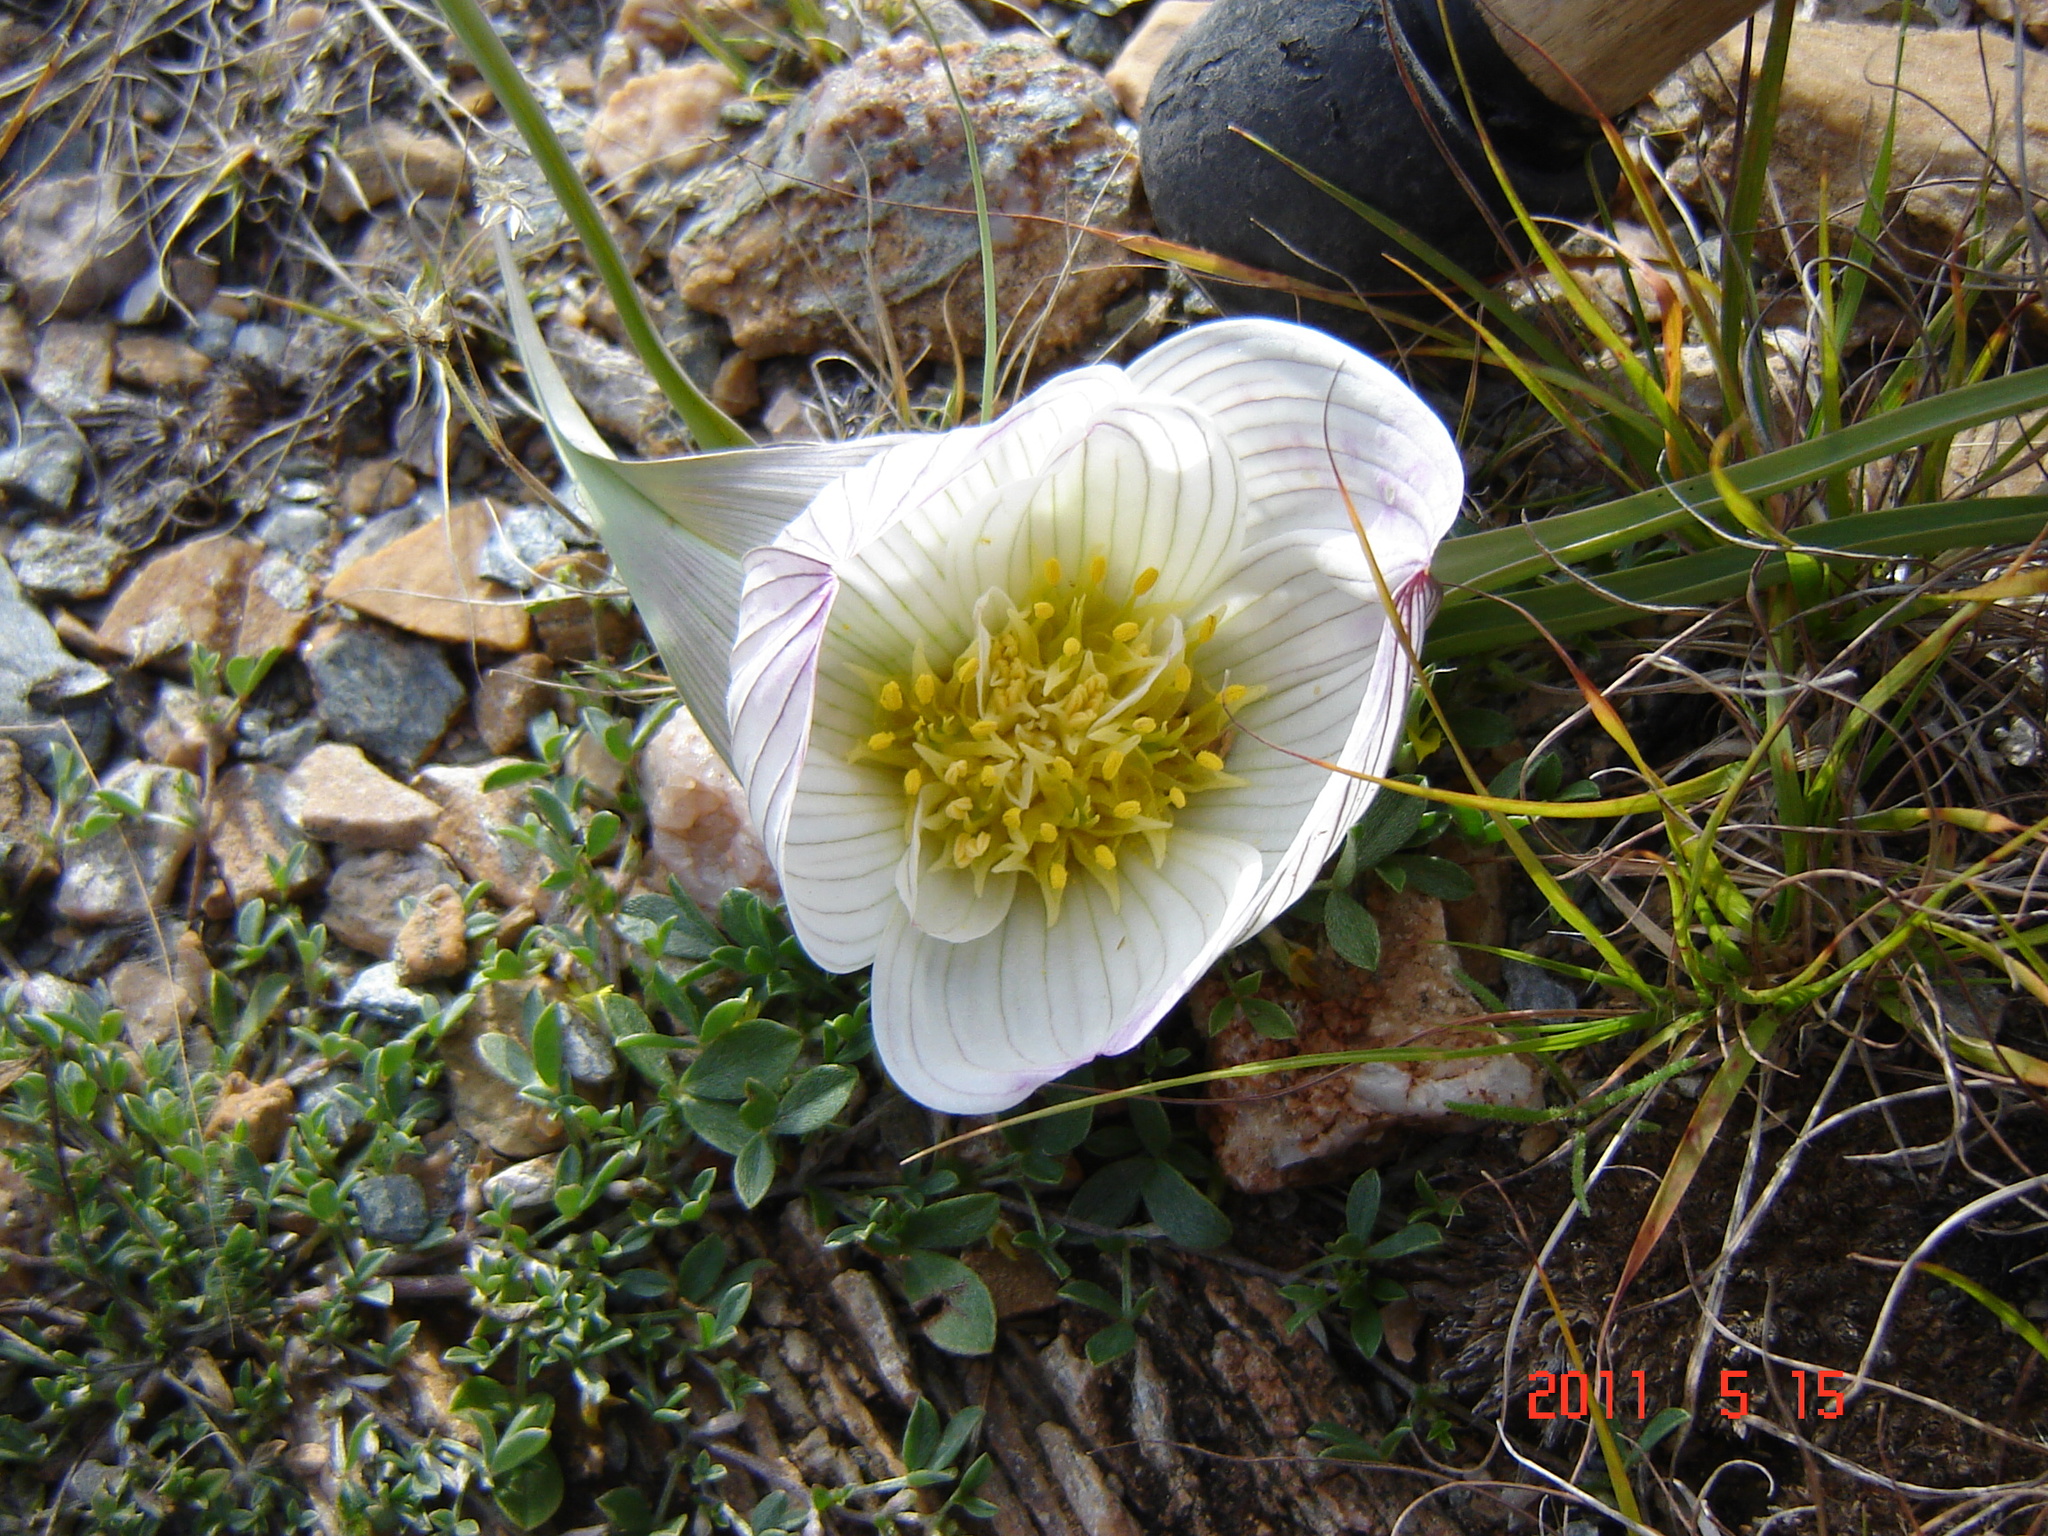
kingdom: Plantae
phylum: Tracheophyta
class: Liliopsida
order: Liliales
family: Colchicaceae
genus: Colchicum
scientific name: Colchicum melanthioides
